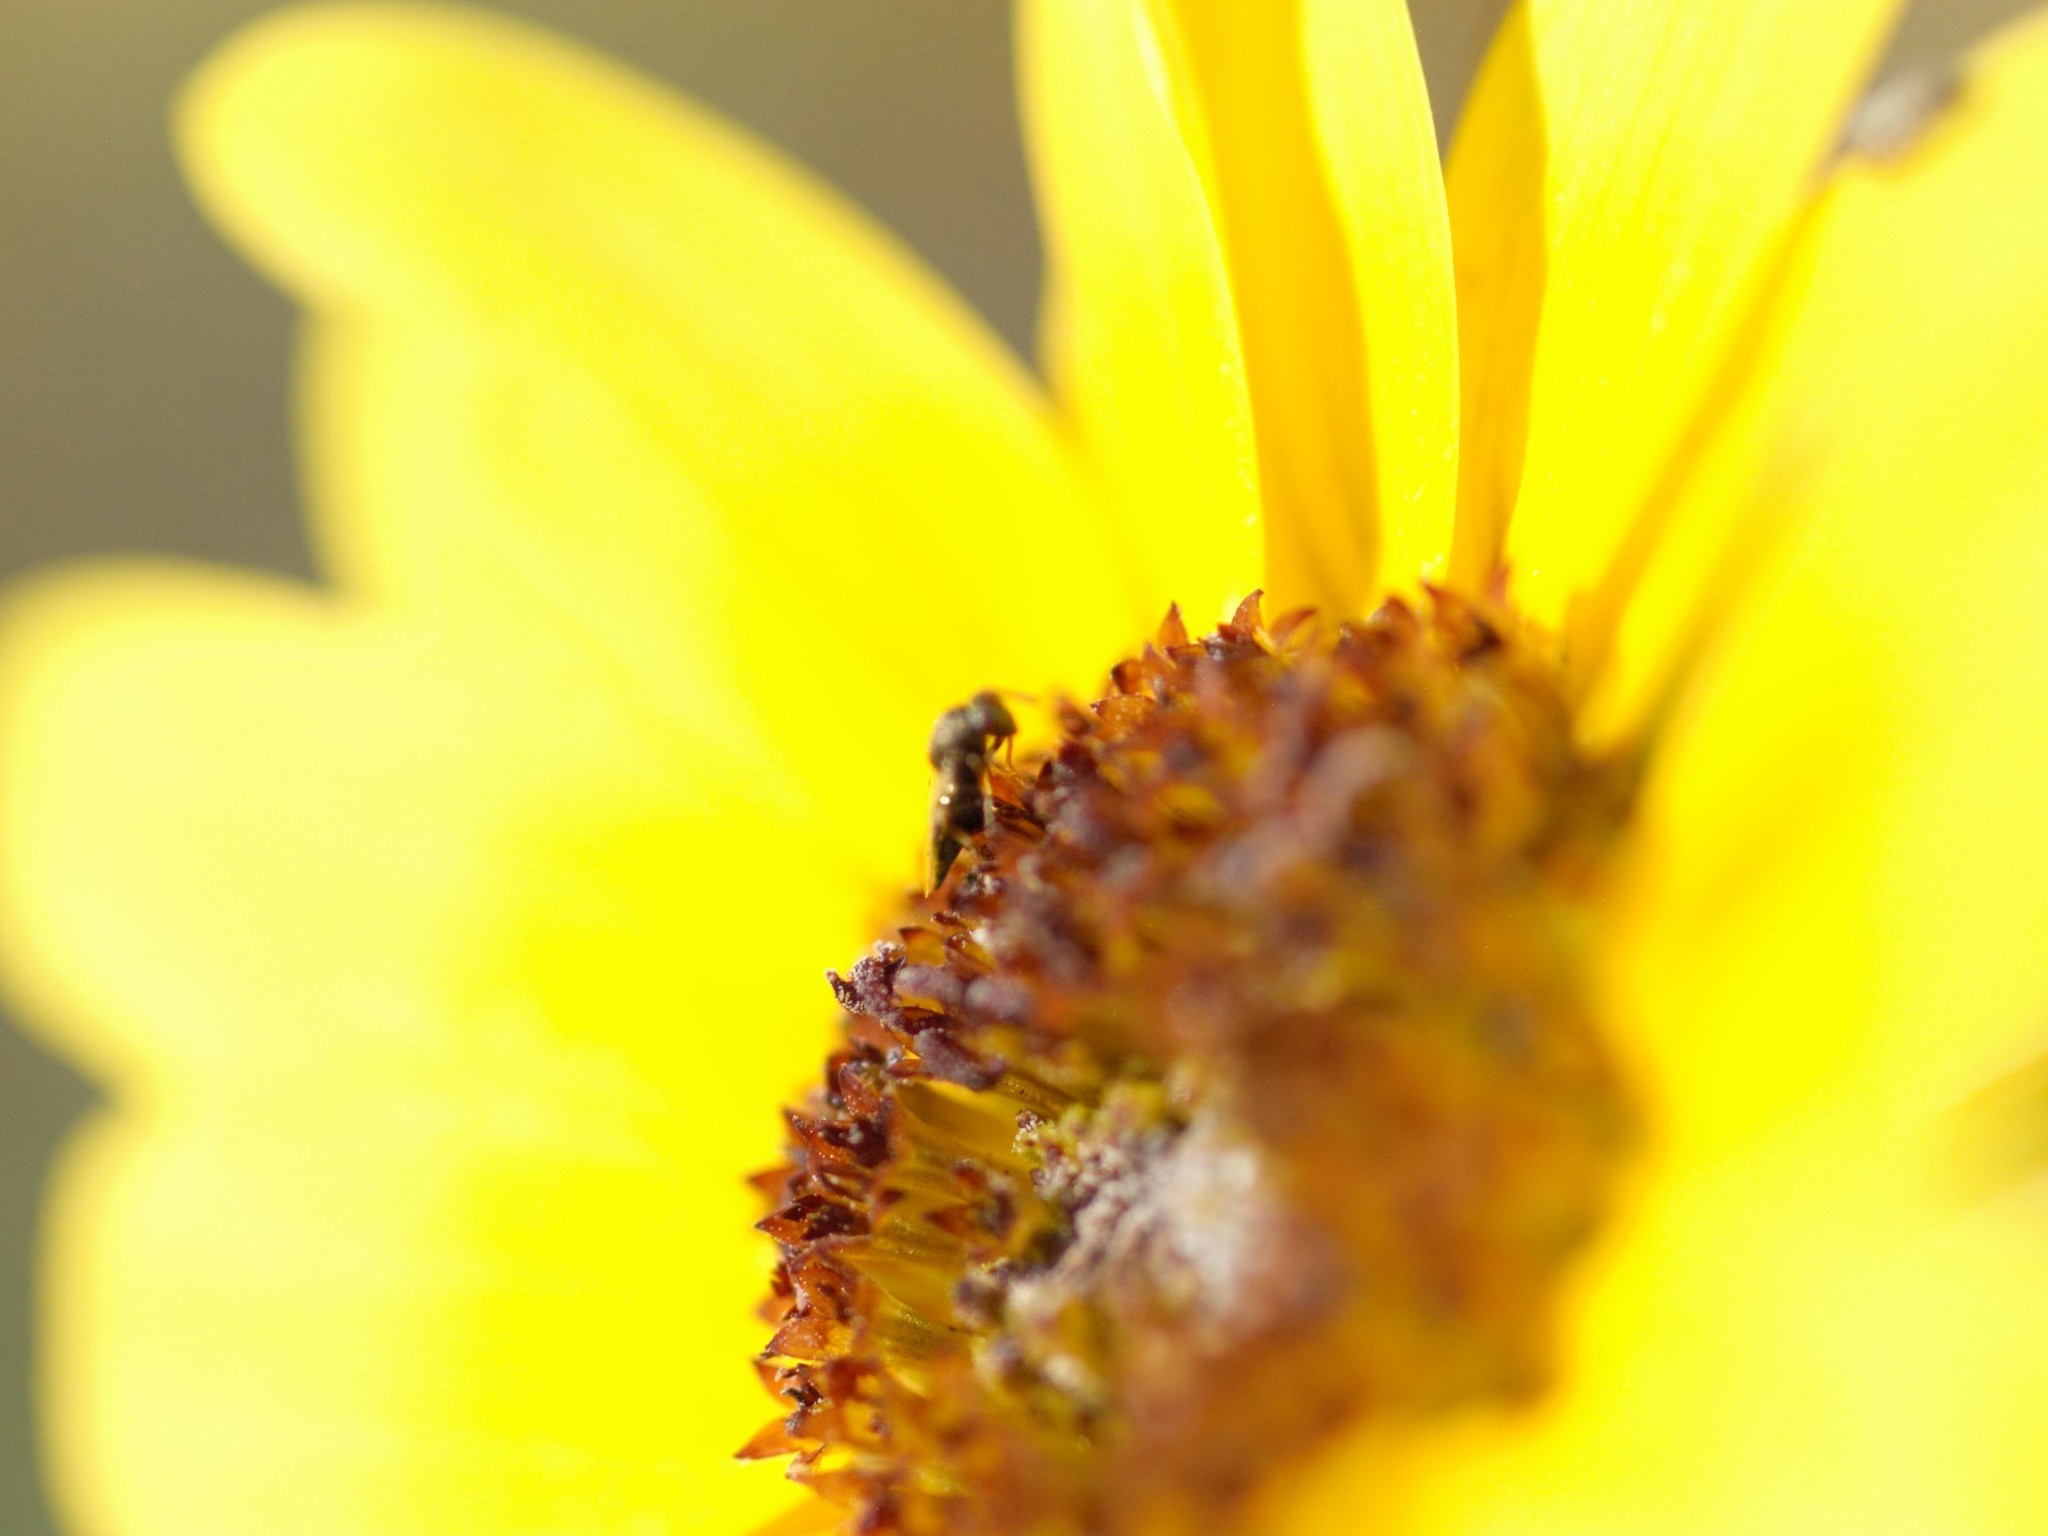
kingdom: Animalia
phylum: Arthropoda
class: Insecta
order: Hymenoptera
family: Pteromalini
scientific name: Pteromalini
